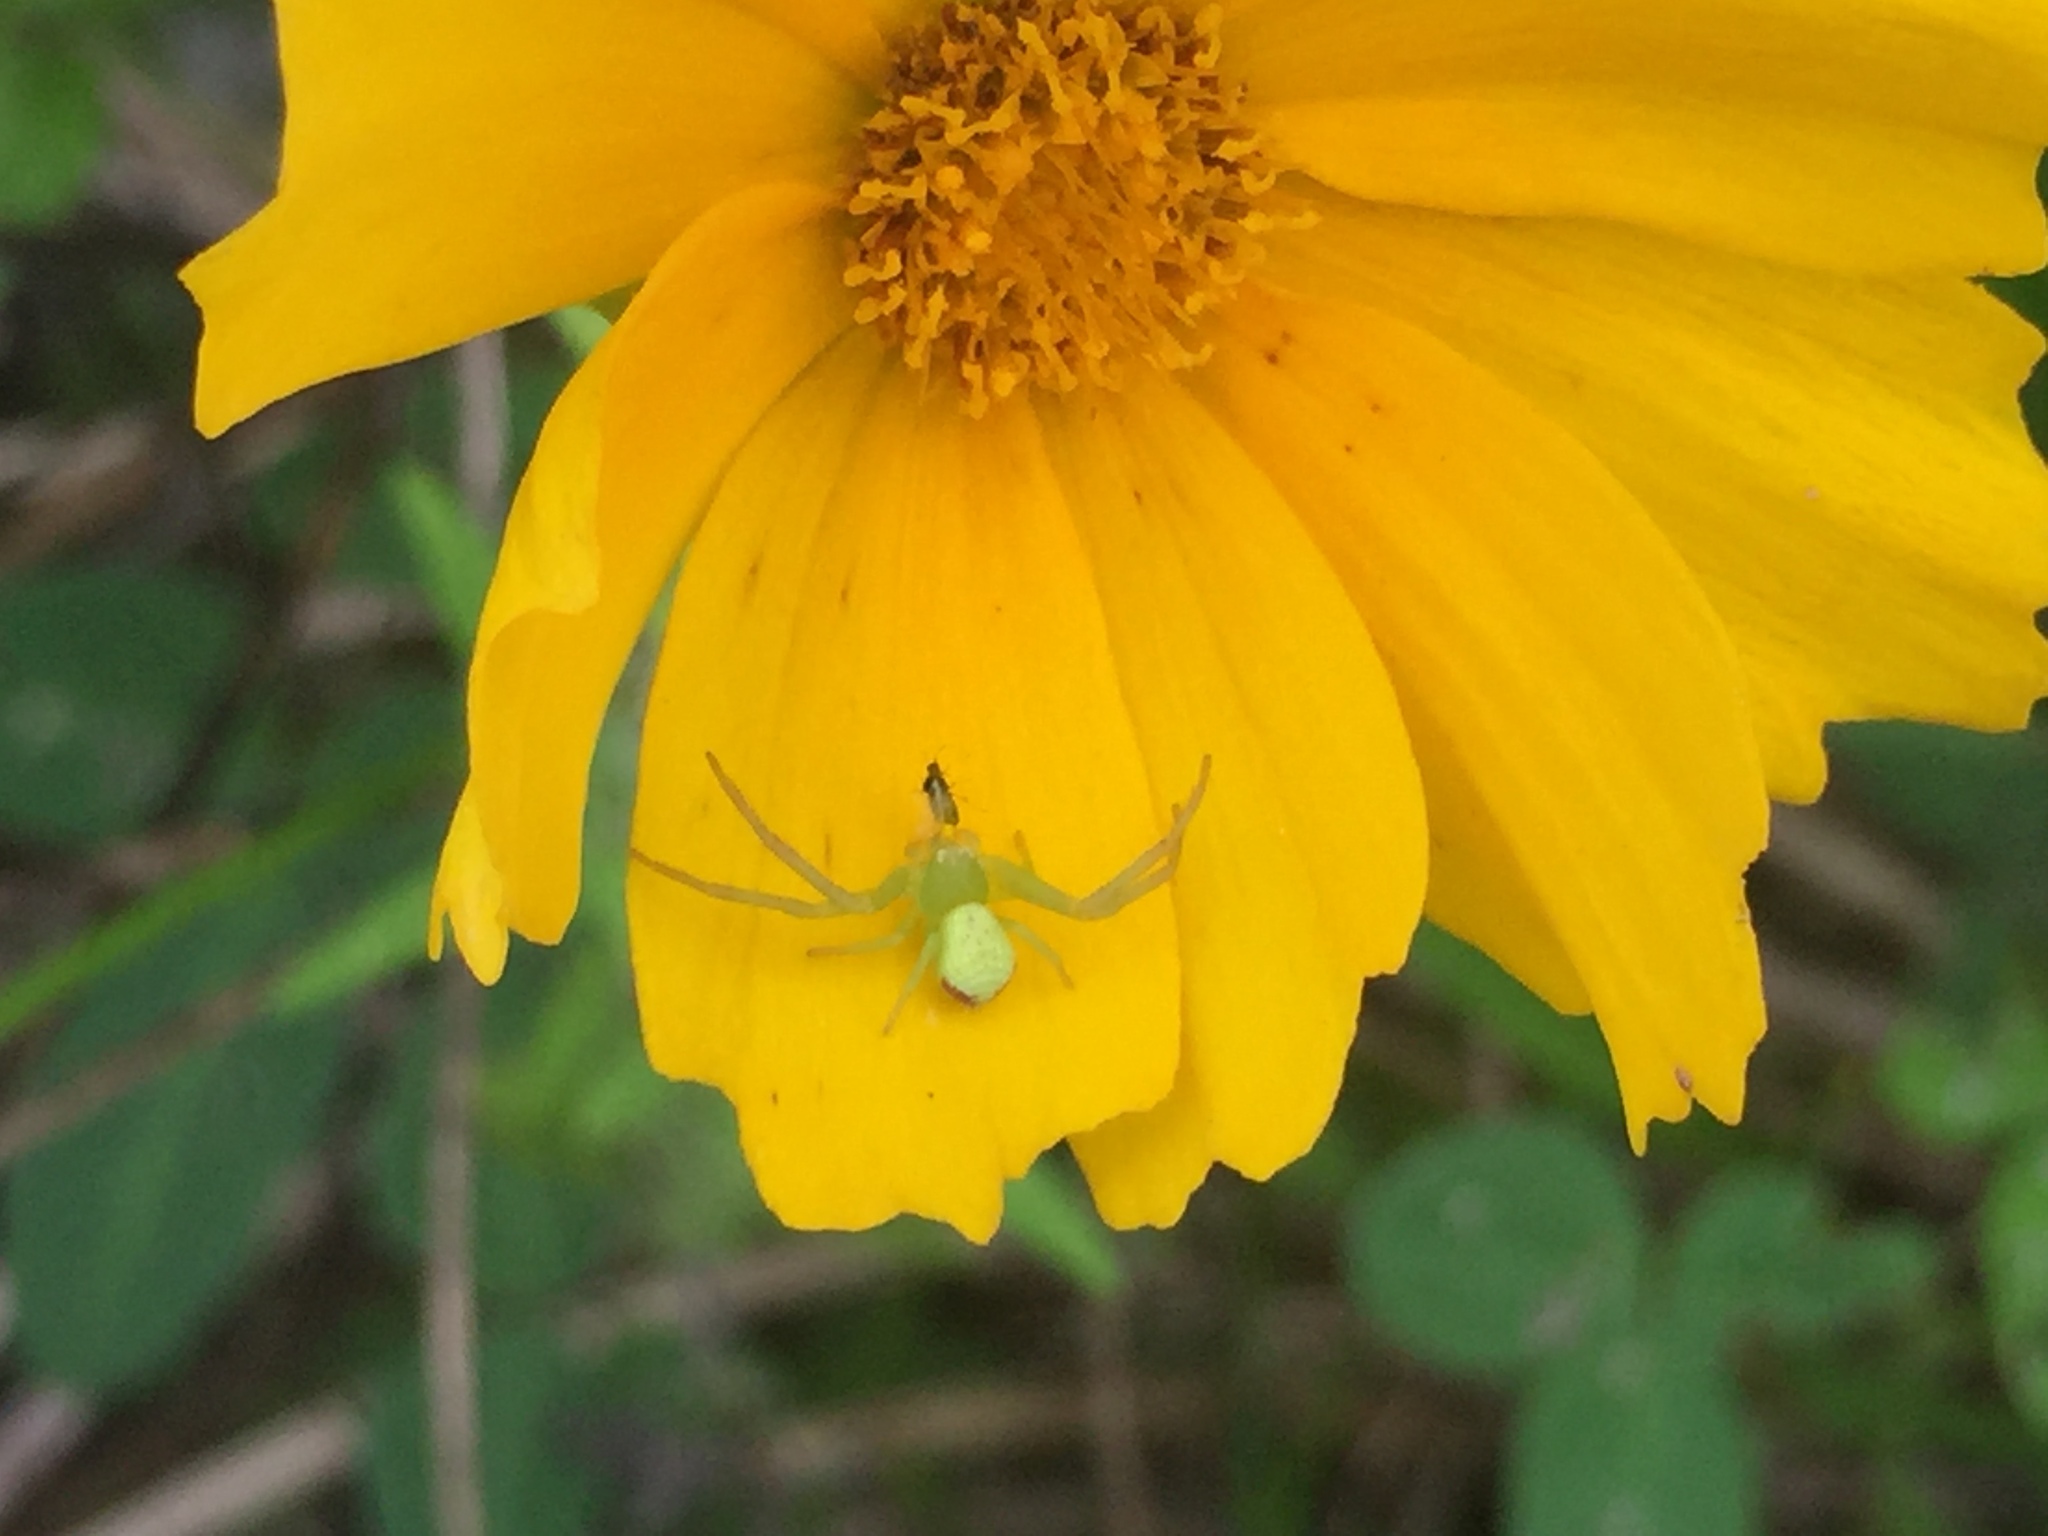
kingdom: Animalia
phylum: Arthropoda
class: Arachnida
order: Araneae
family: Thomisidae
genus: Ebrechtella
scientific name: Ebrechtella tricuspidata
